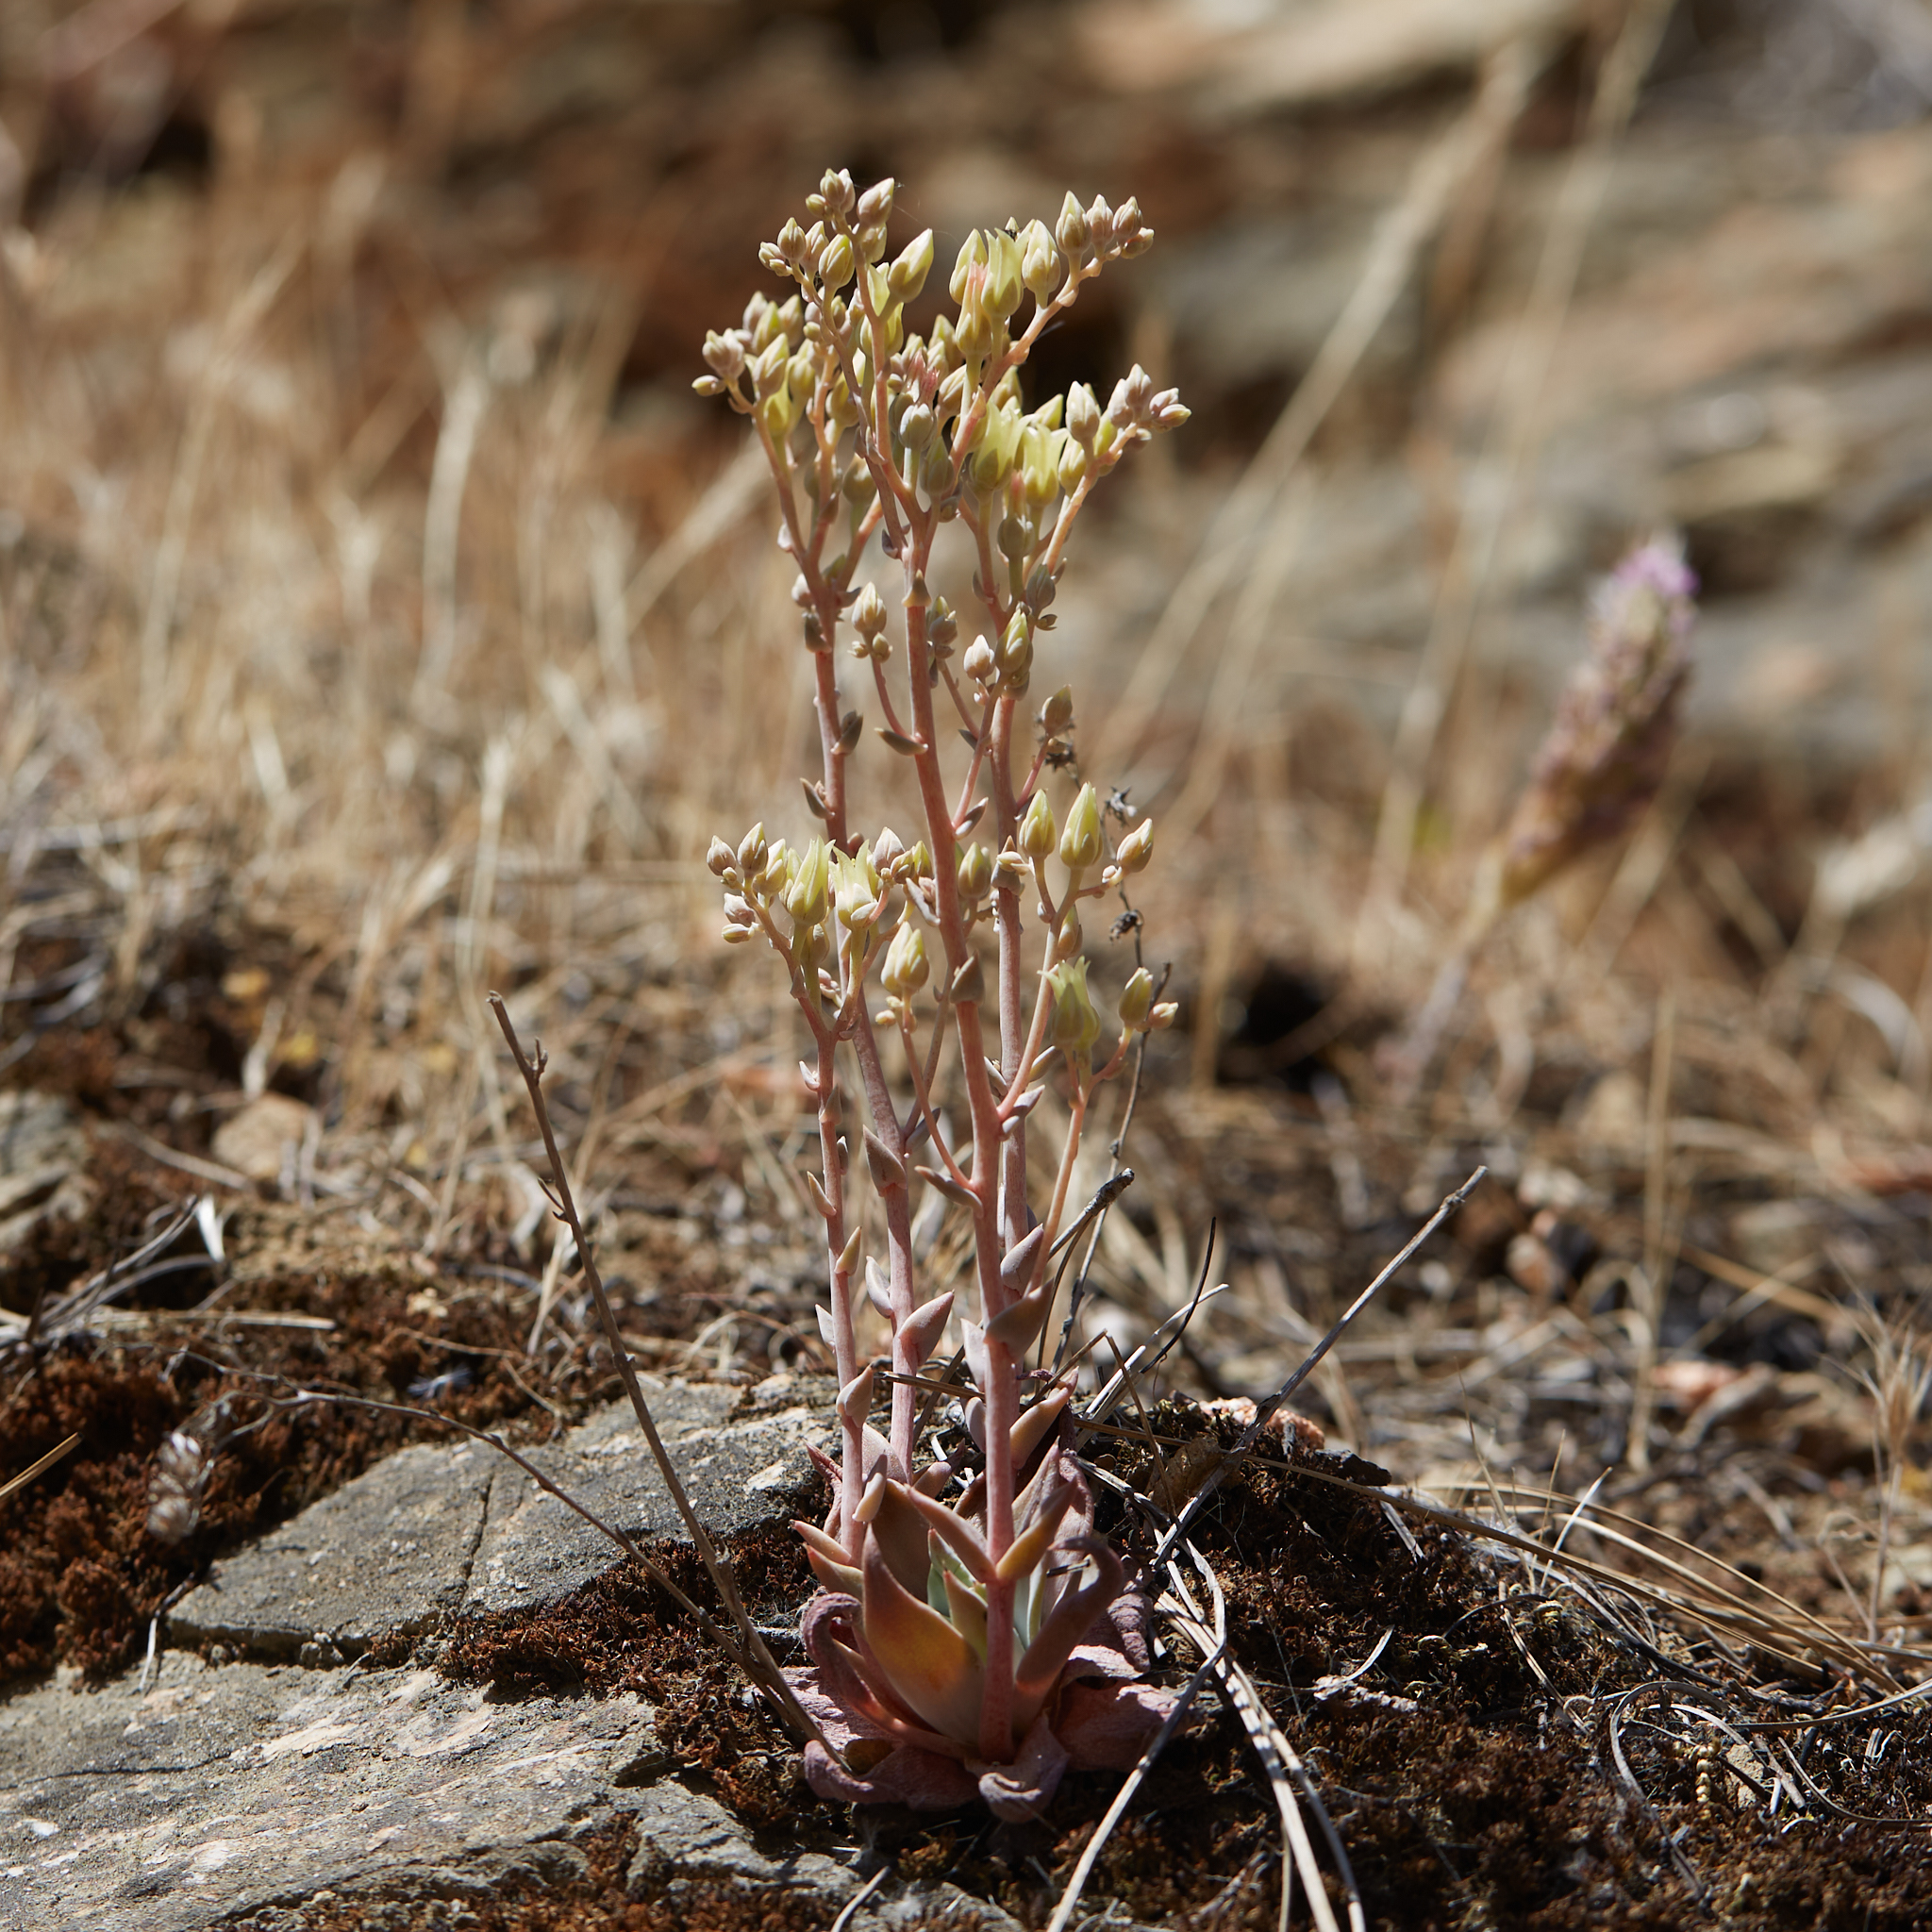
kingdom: Plantae
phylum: Tracheophyta
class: Magnoliopsida
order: Saxifragales
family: Crassulaceae
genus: Dudleya
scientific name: Dudleya cymosa
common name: Canyon dudleya
